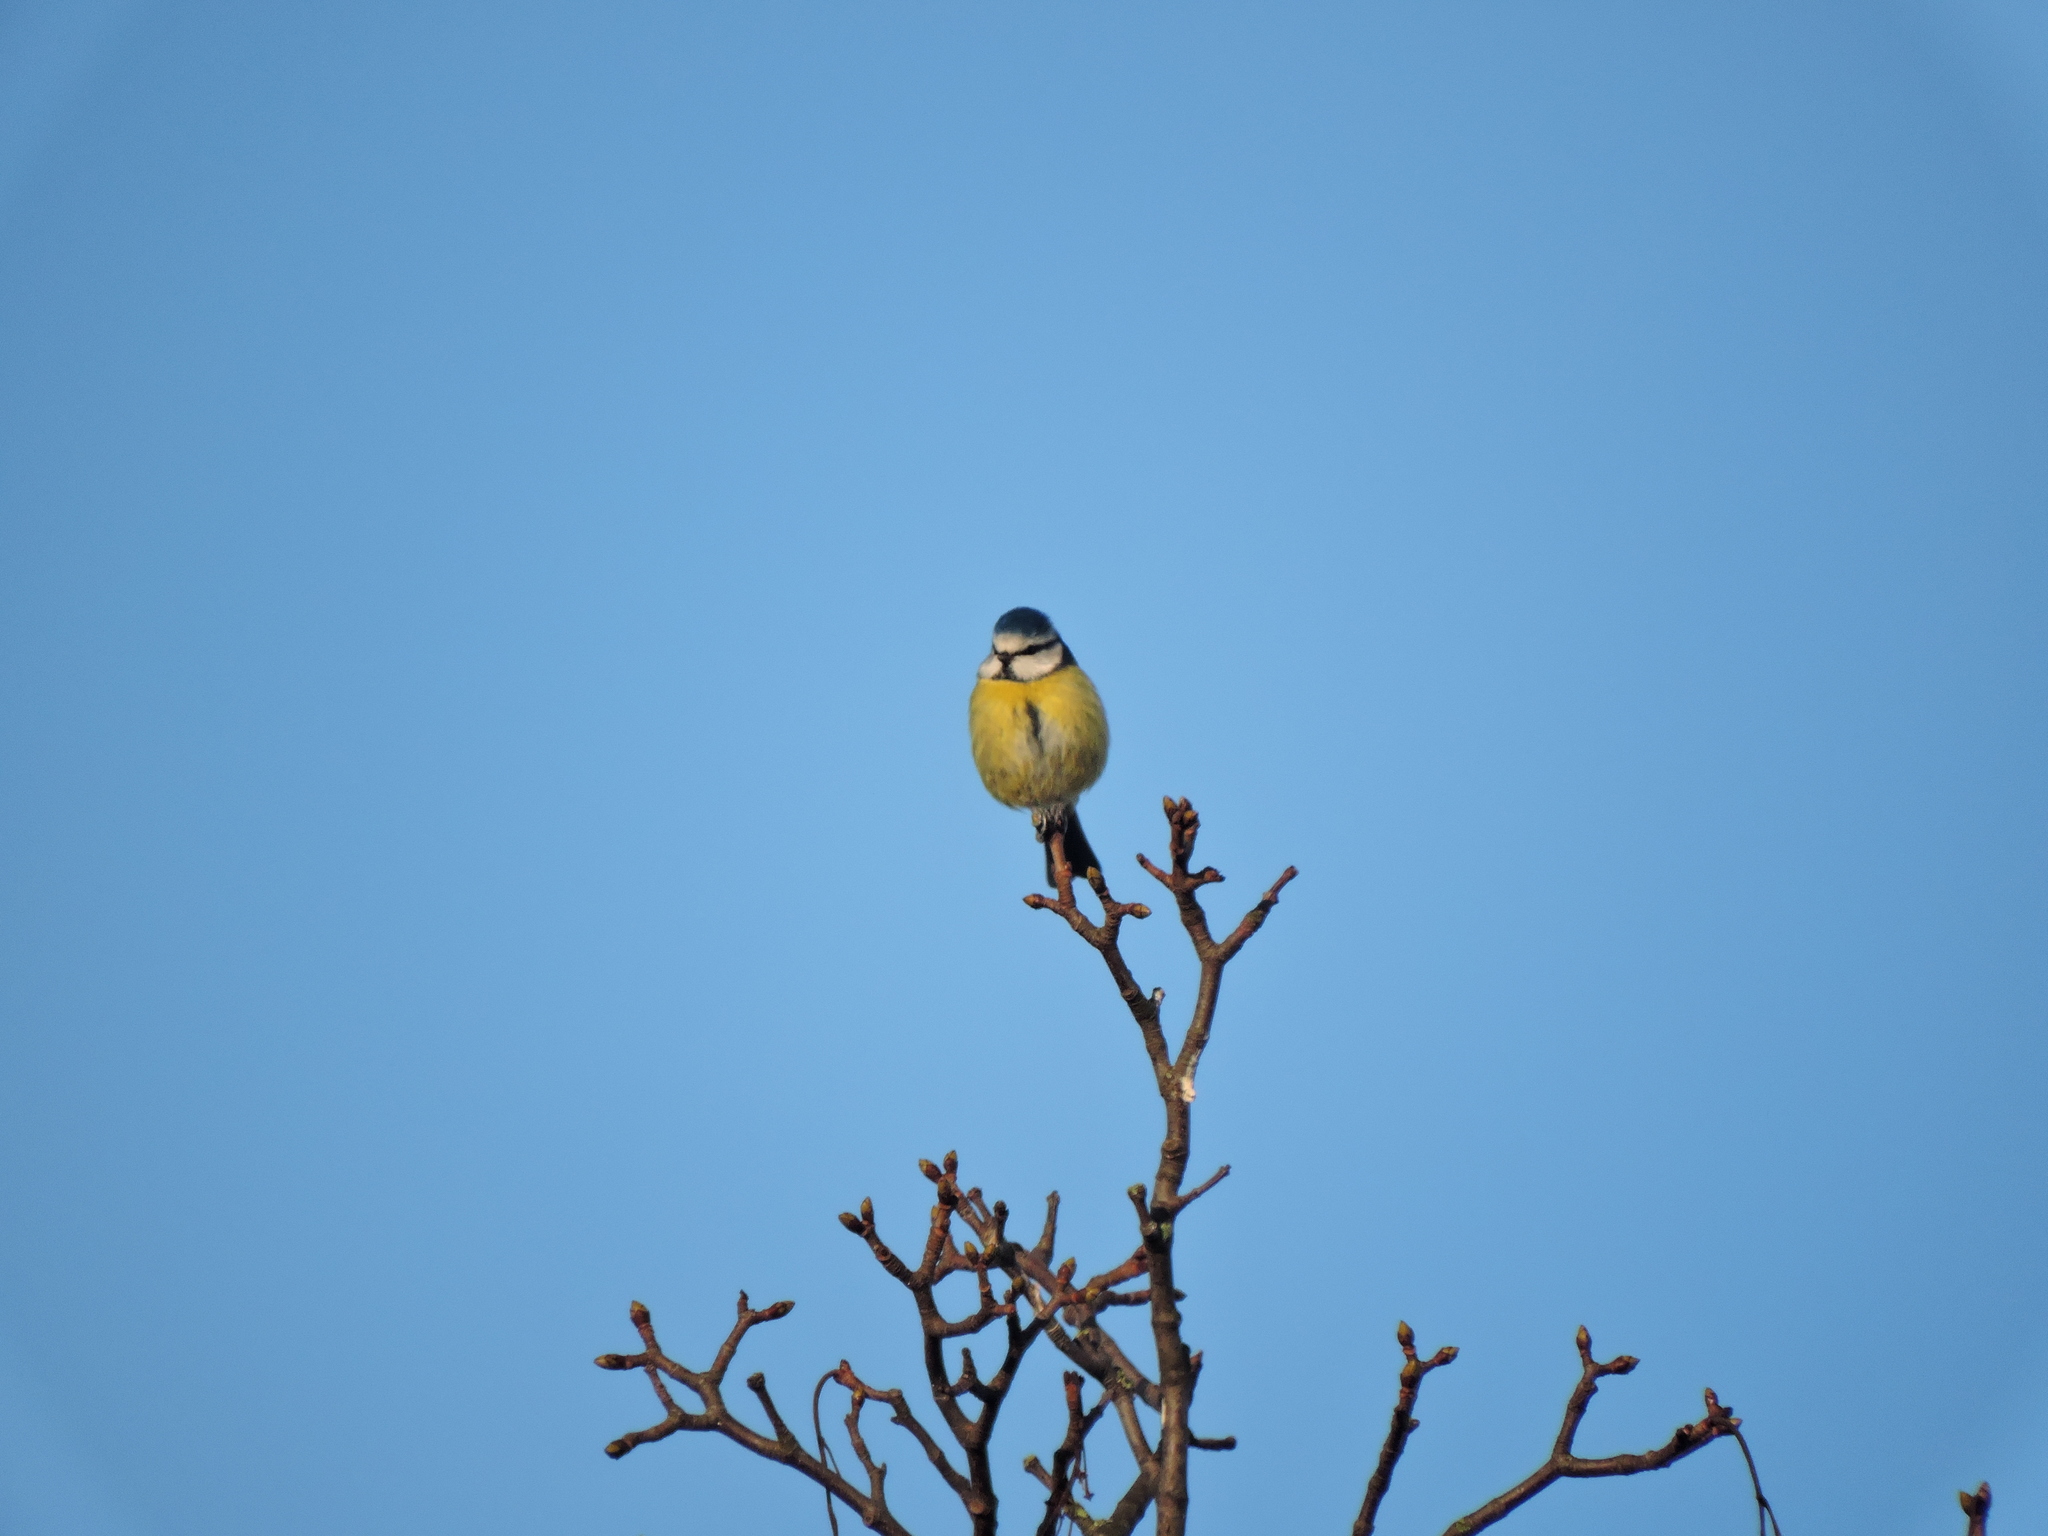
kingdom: Animalia
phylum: Chordata
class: Aves
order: Passeriformes
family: Paridae
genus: Cyanistes
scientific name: Cyanistes caeruleus
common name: Eurasian blue tit
